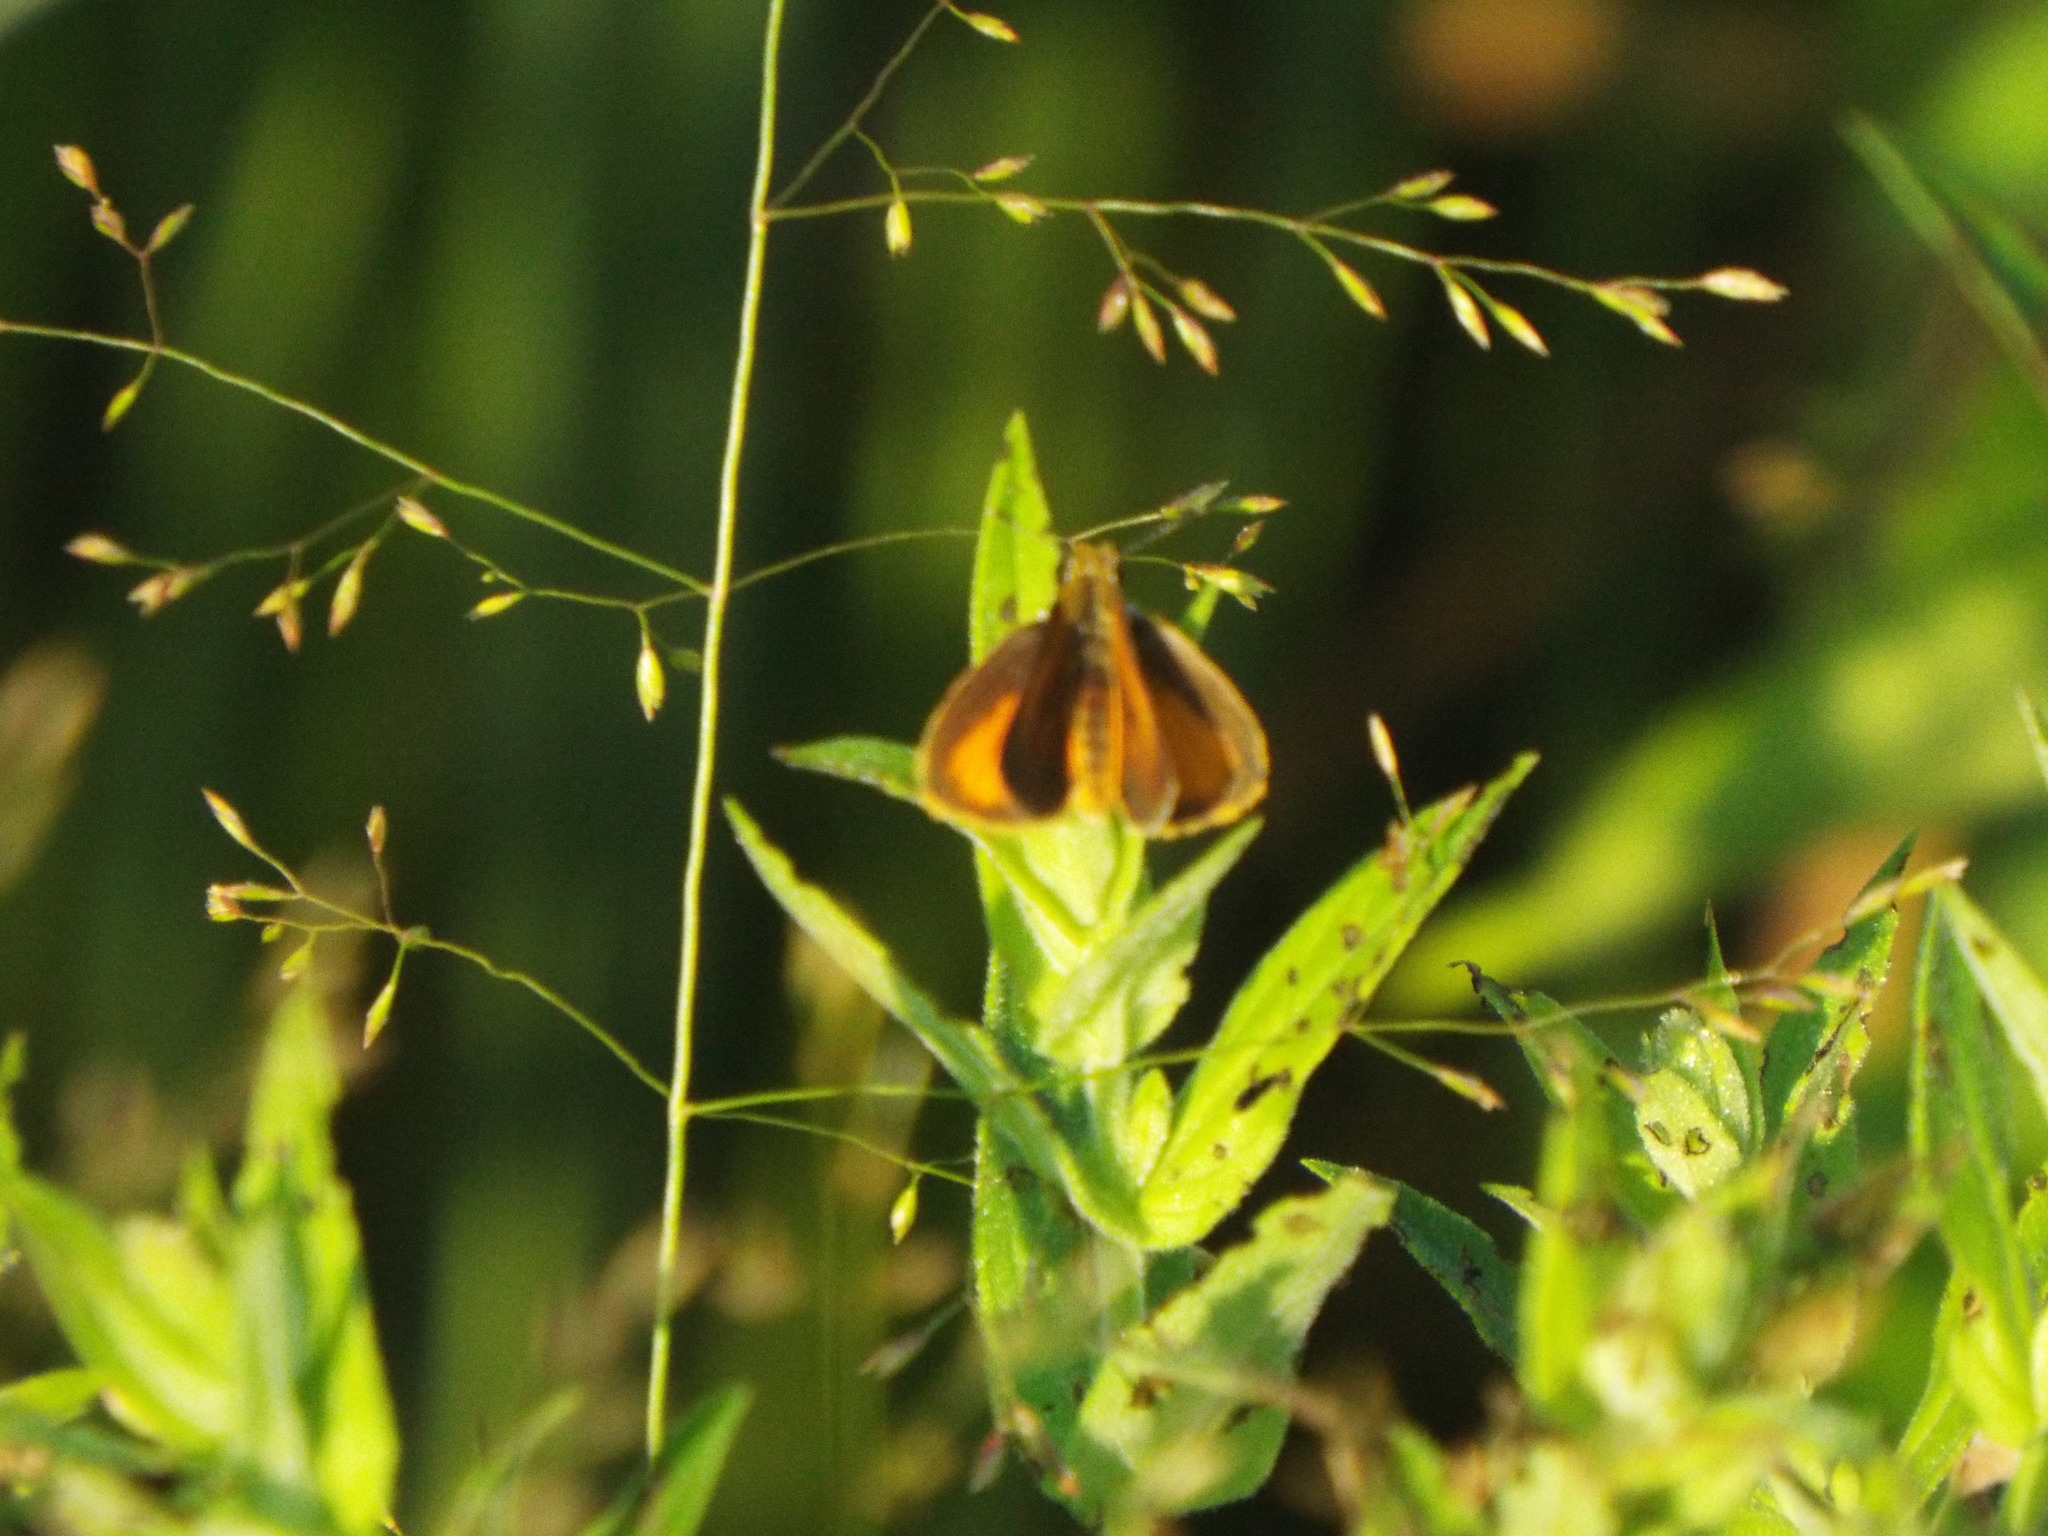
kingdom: Animalia
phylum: Arthropoda
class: Insecta
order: Lepidoptera
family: Hesperiidae
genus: Ancyloxypha
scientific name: Ancyloxypha numitor
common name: Least skipper
